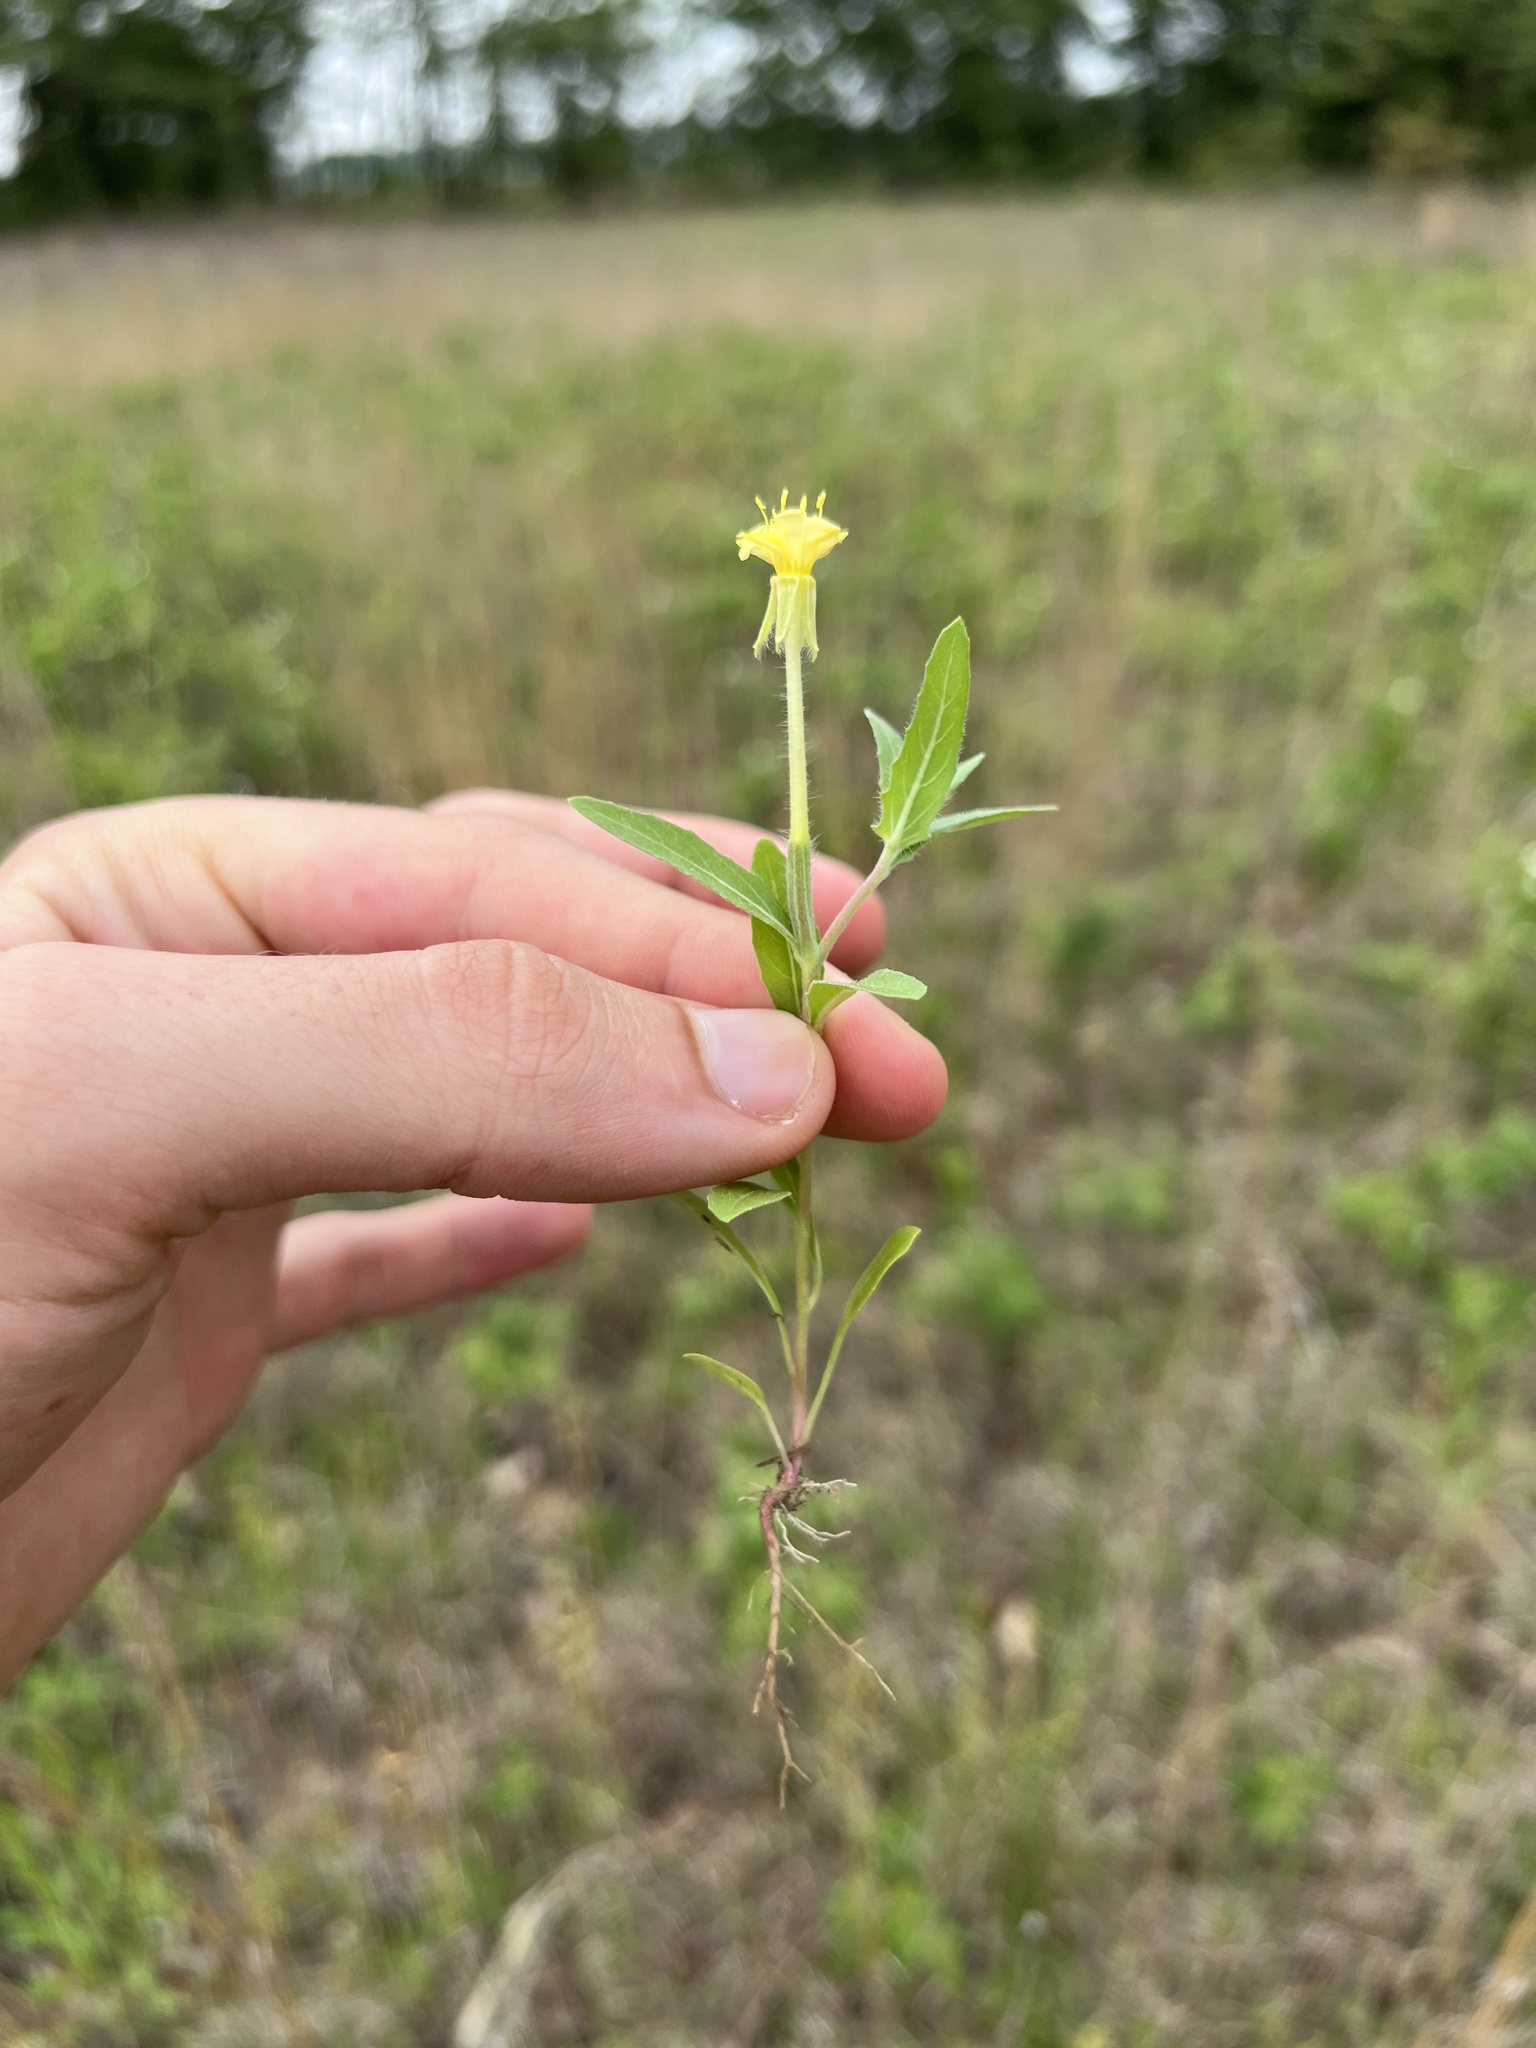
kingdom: Plantae
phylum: Tracheophyta
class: Magnoliopsida
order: Myrtales
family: Onagraceae
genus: Oenothera
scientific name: Oenothera laciniata
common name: Cut-leaved evening-primrose
